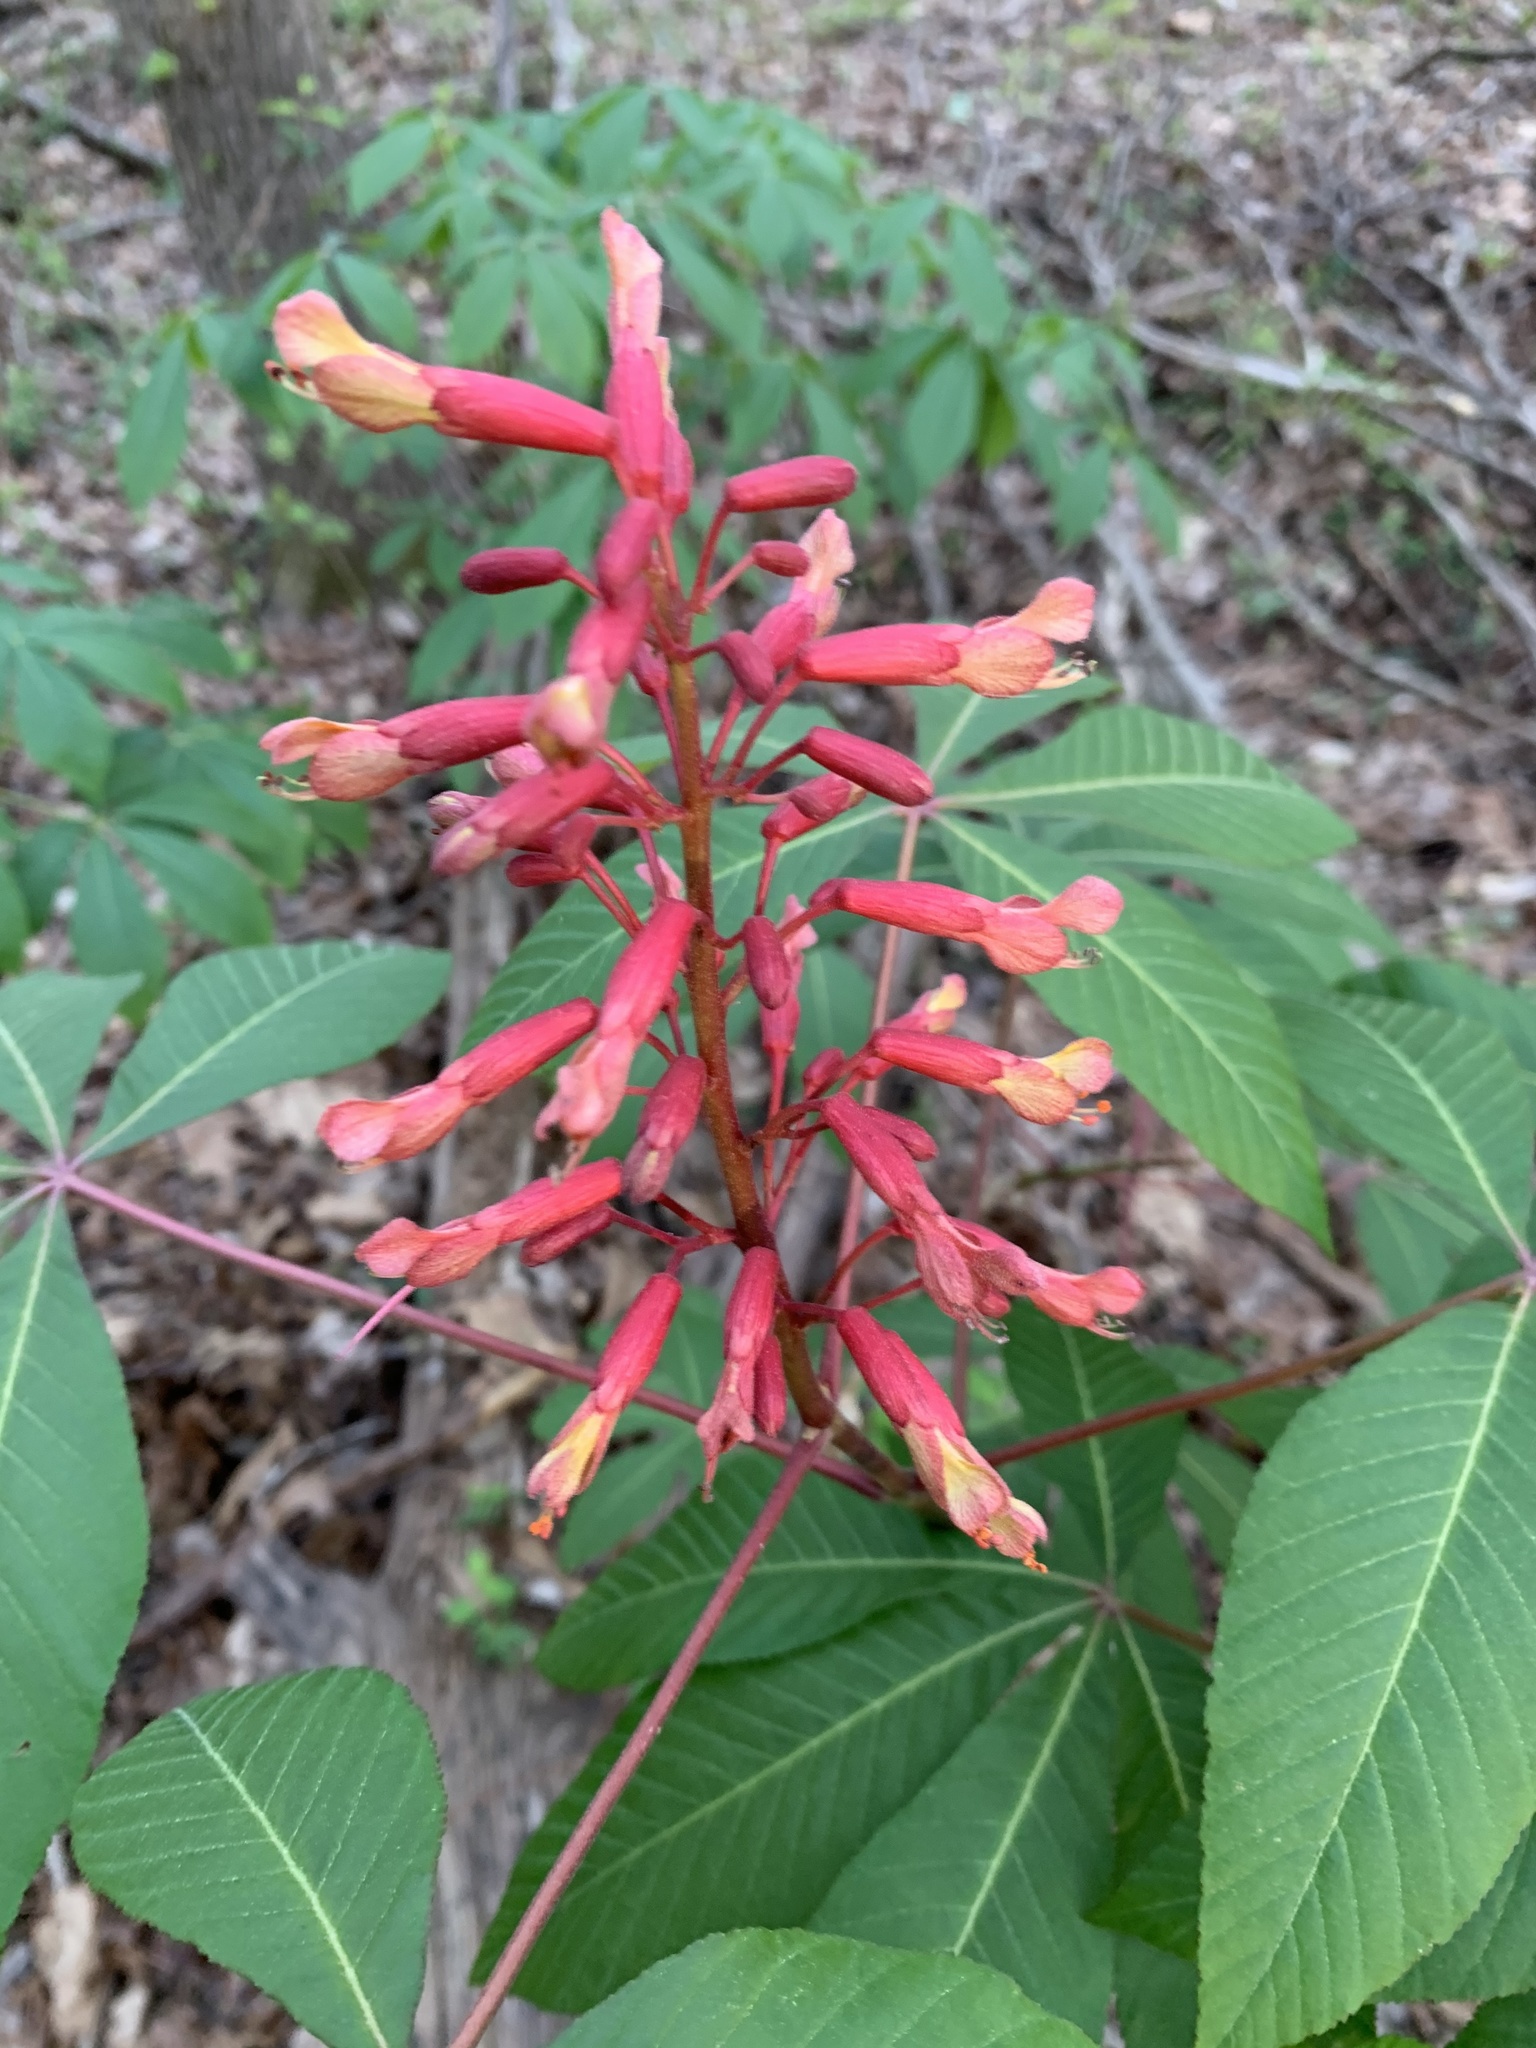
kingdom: Plantae
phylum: Tracheophyta
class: Magnoliopsida
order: Sapindales
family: Sapindaceae
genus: Aesculus
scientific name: Aesculus pavia
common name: Red buckeye
